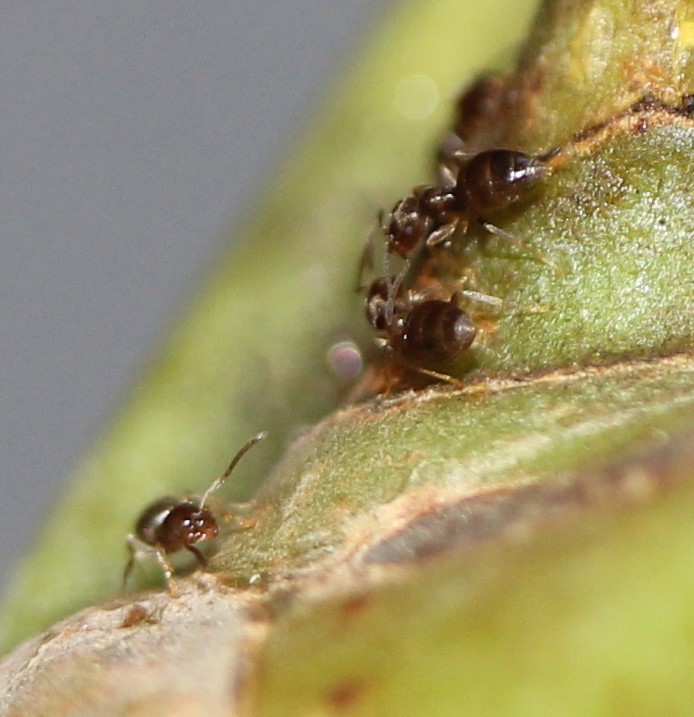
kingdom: Animalia
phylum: Arthropoda
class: Insecta
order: Hymenoptera
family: Formicidae
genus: Brachymyrmex
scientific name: Brachymyrmex obscurior
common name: Obscure rover ant
